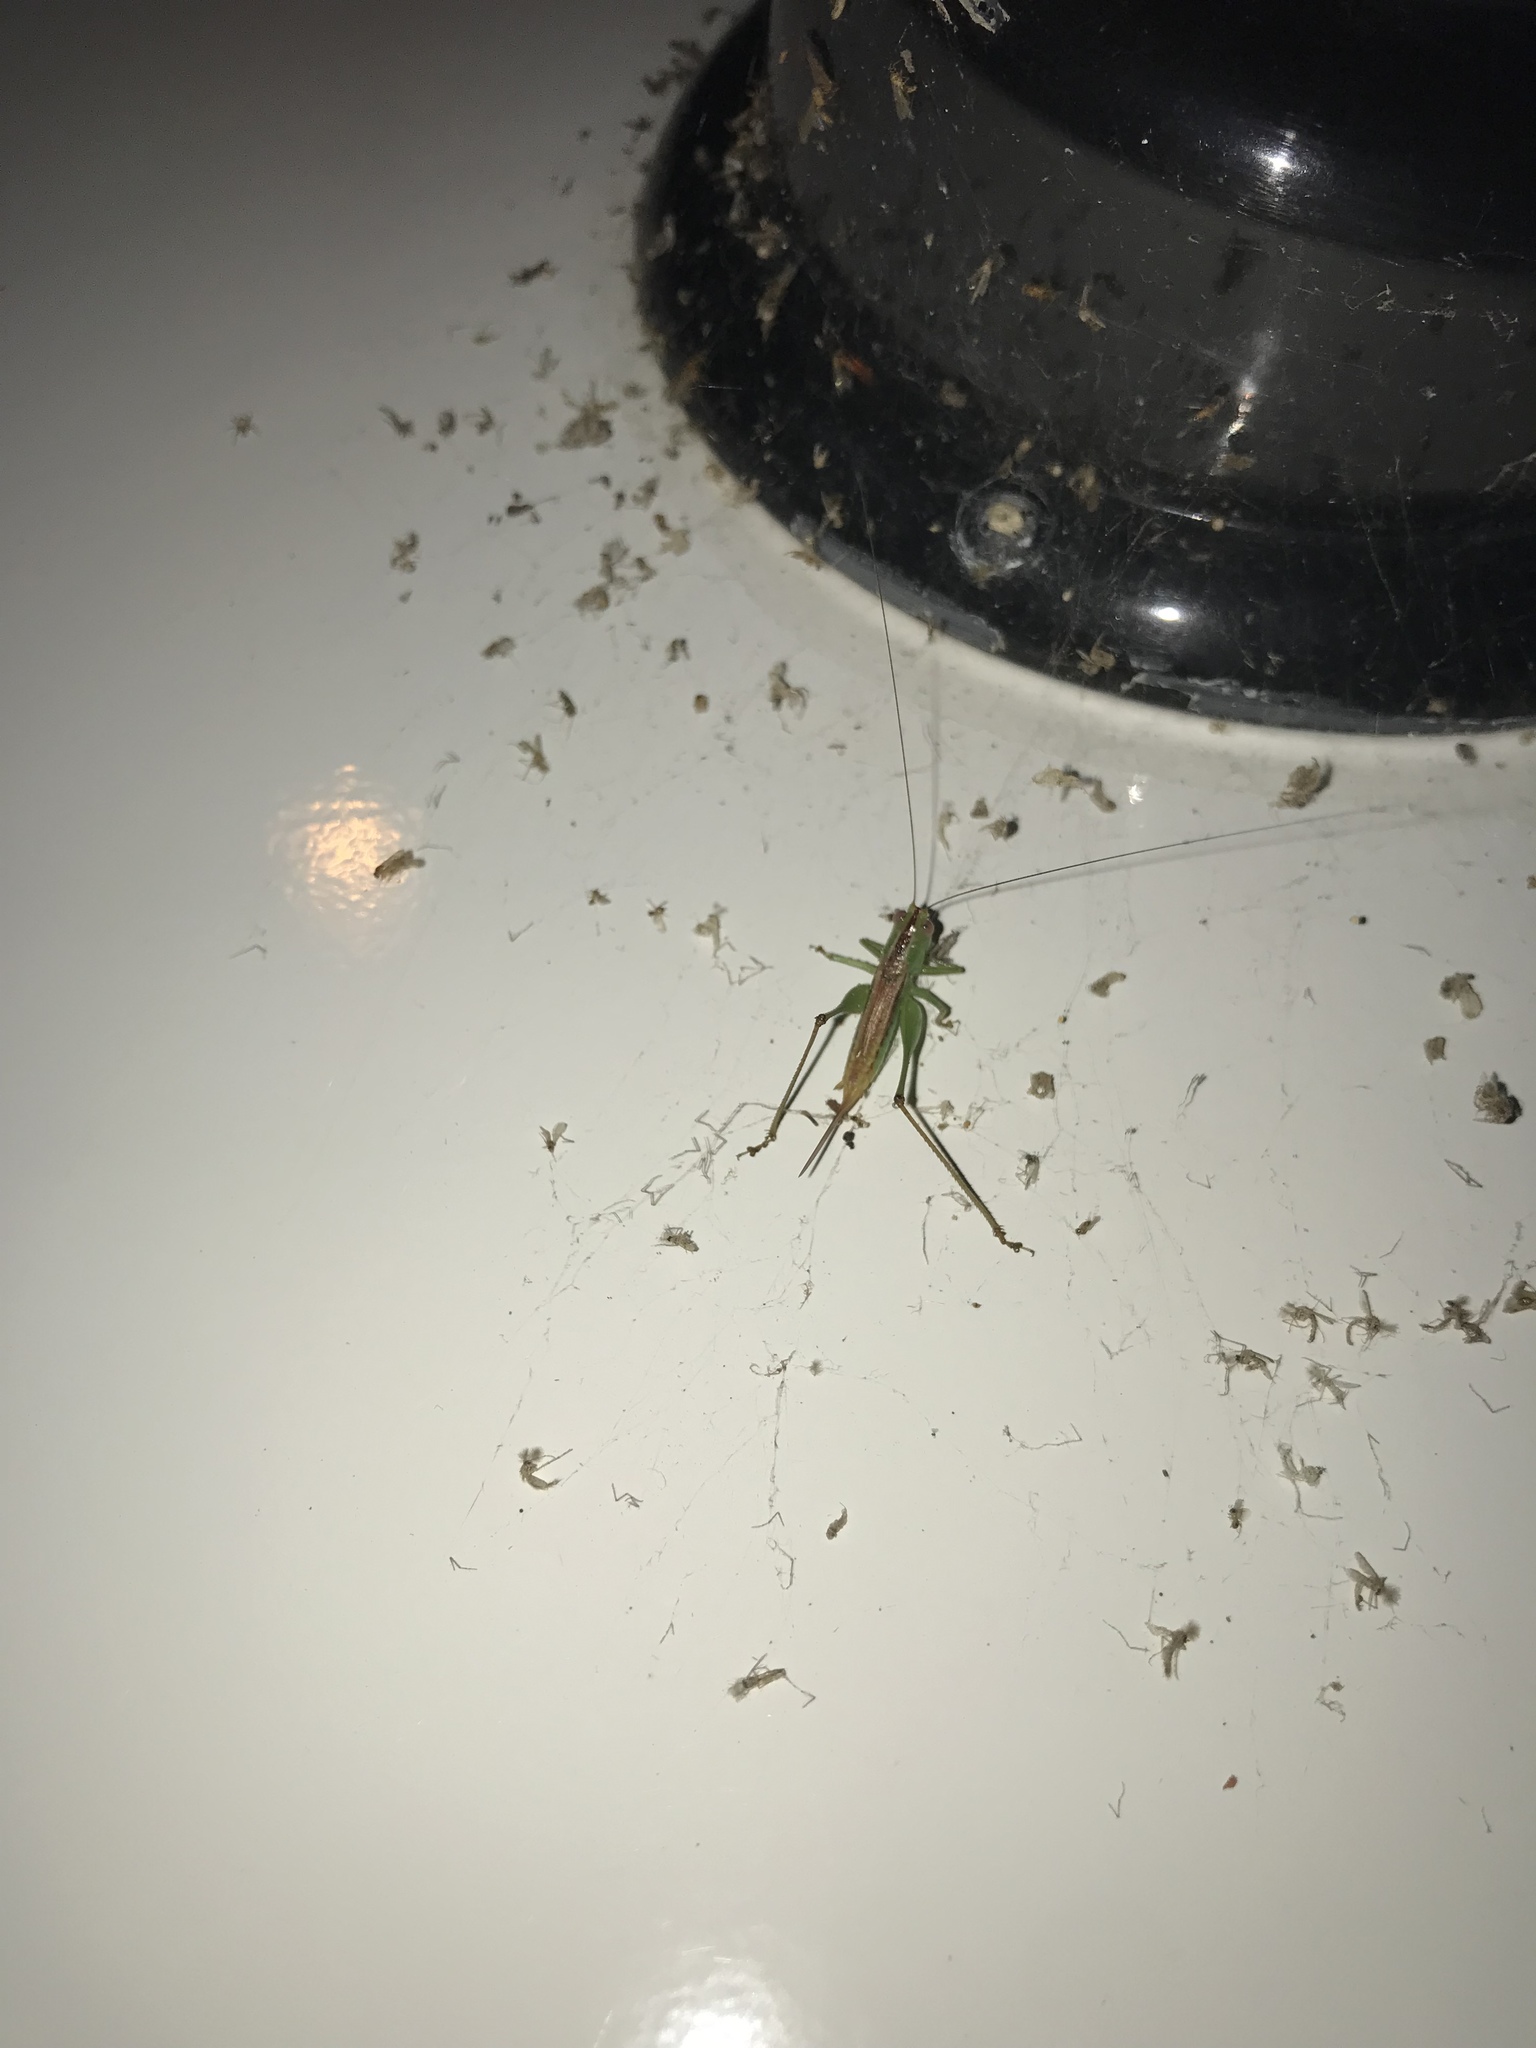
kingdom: Animalia
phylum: Arthropoda
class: Insecta
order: Orthoptera
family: Tettigoniidae
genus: Conocephalus
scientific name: Conocephalus brevipennis
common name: Short-winged meadow katydid
